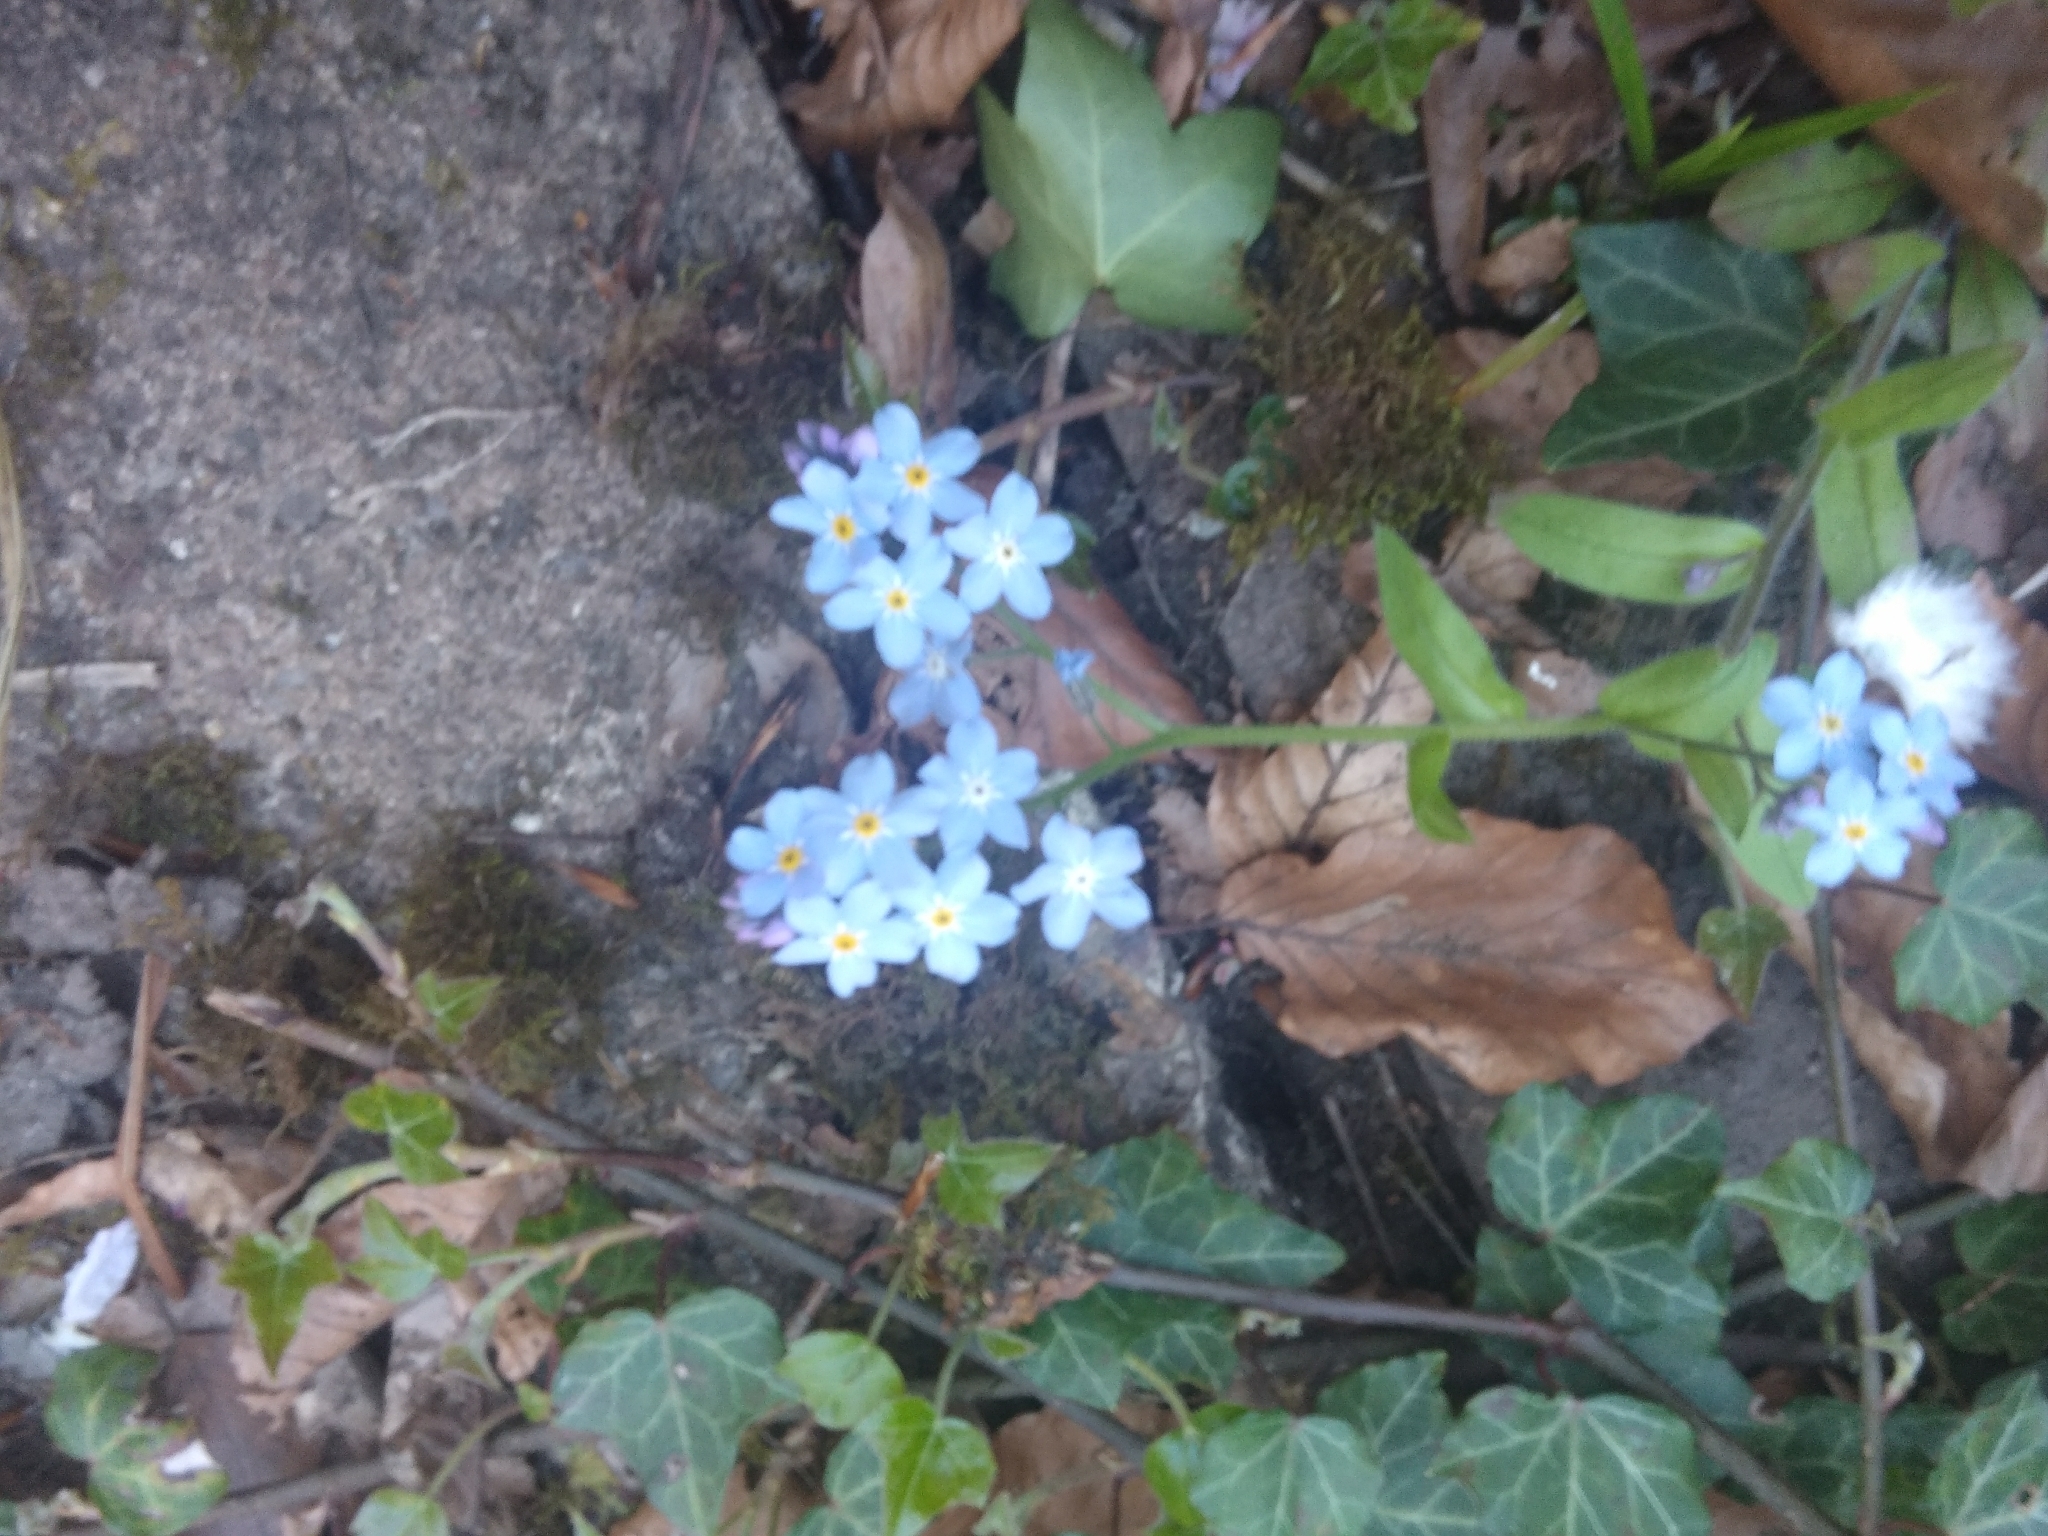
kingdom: Plantae
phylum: Tracheophyta
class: Magnoliopsida
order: Boraginales
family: Boraginaceae
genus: Myosotis
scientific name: Myosotis sylvatica
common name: Wood forget-me-not
